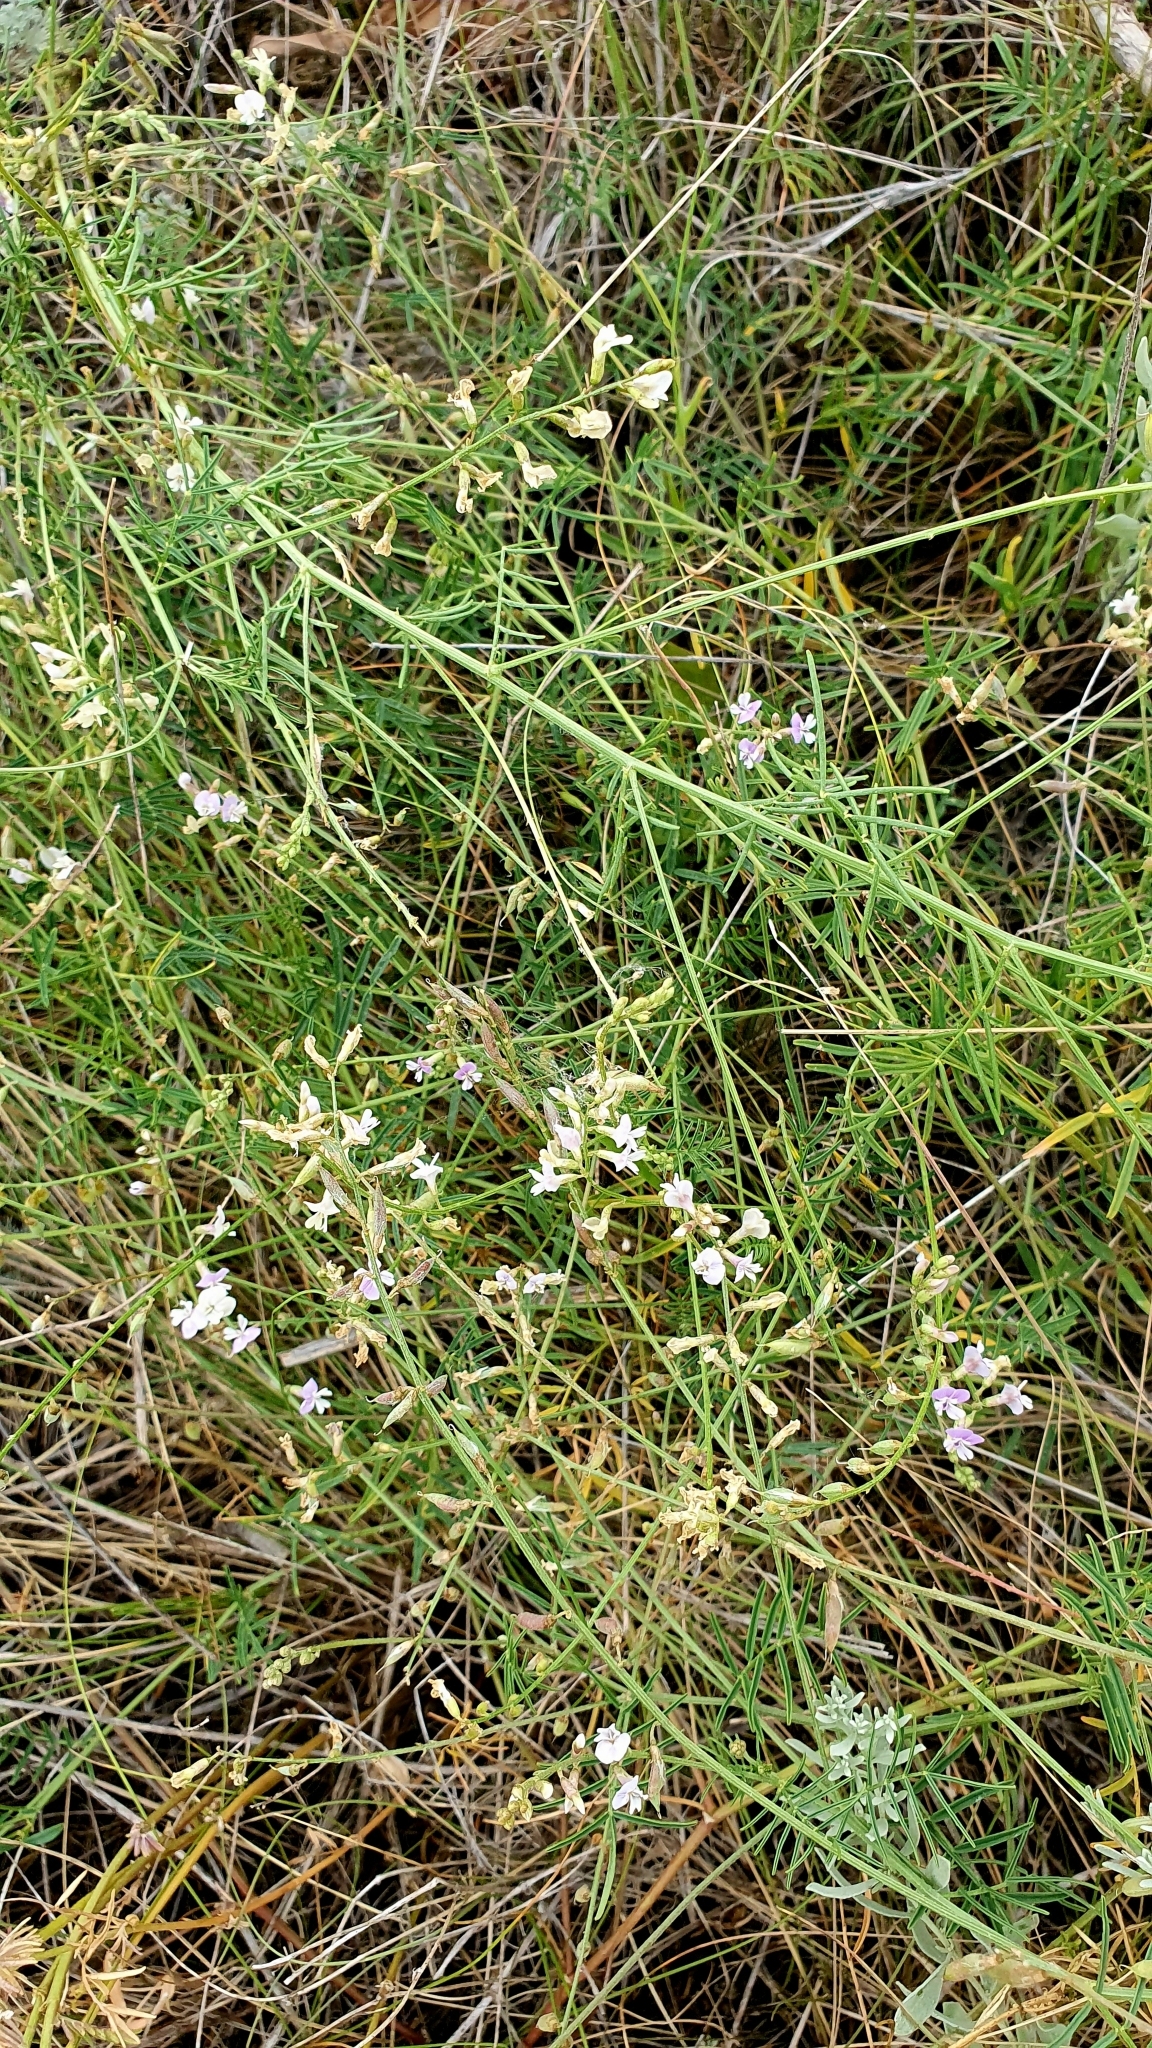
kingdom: Plantae
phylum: Tracheophyta
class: Magnoliopsida
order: Fabales
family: Fabaceae
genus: Astragalus
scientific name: Astragalus austriacus
